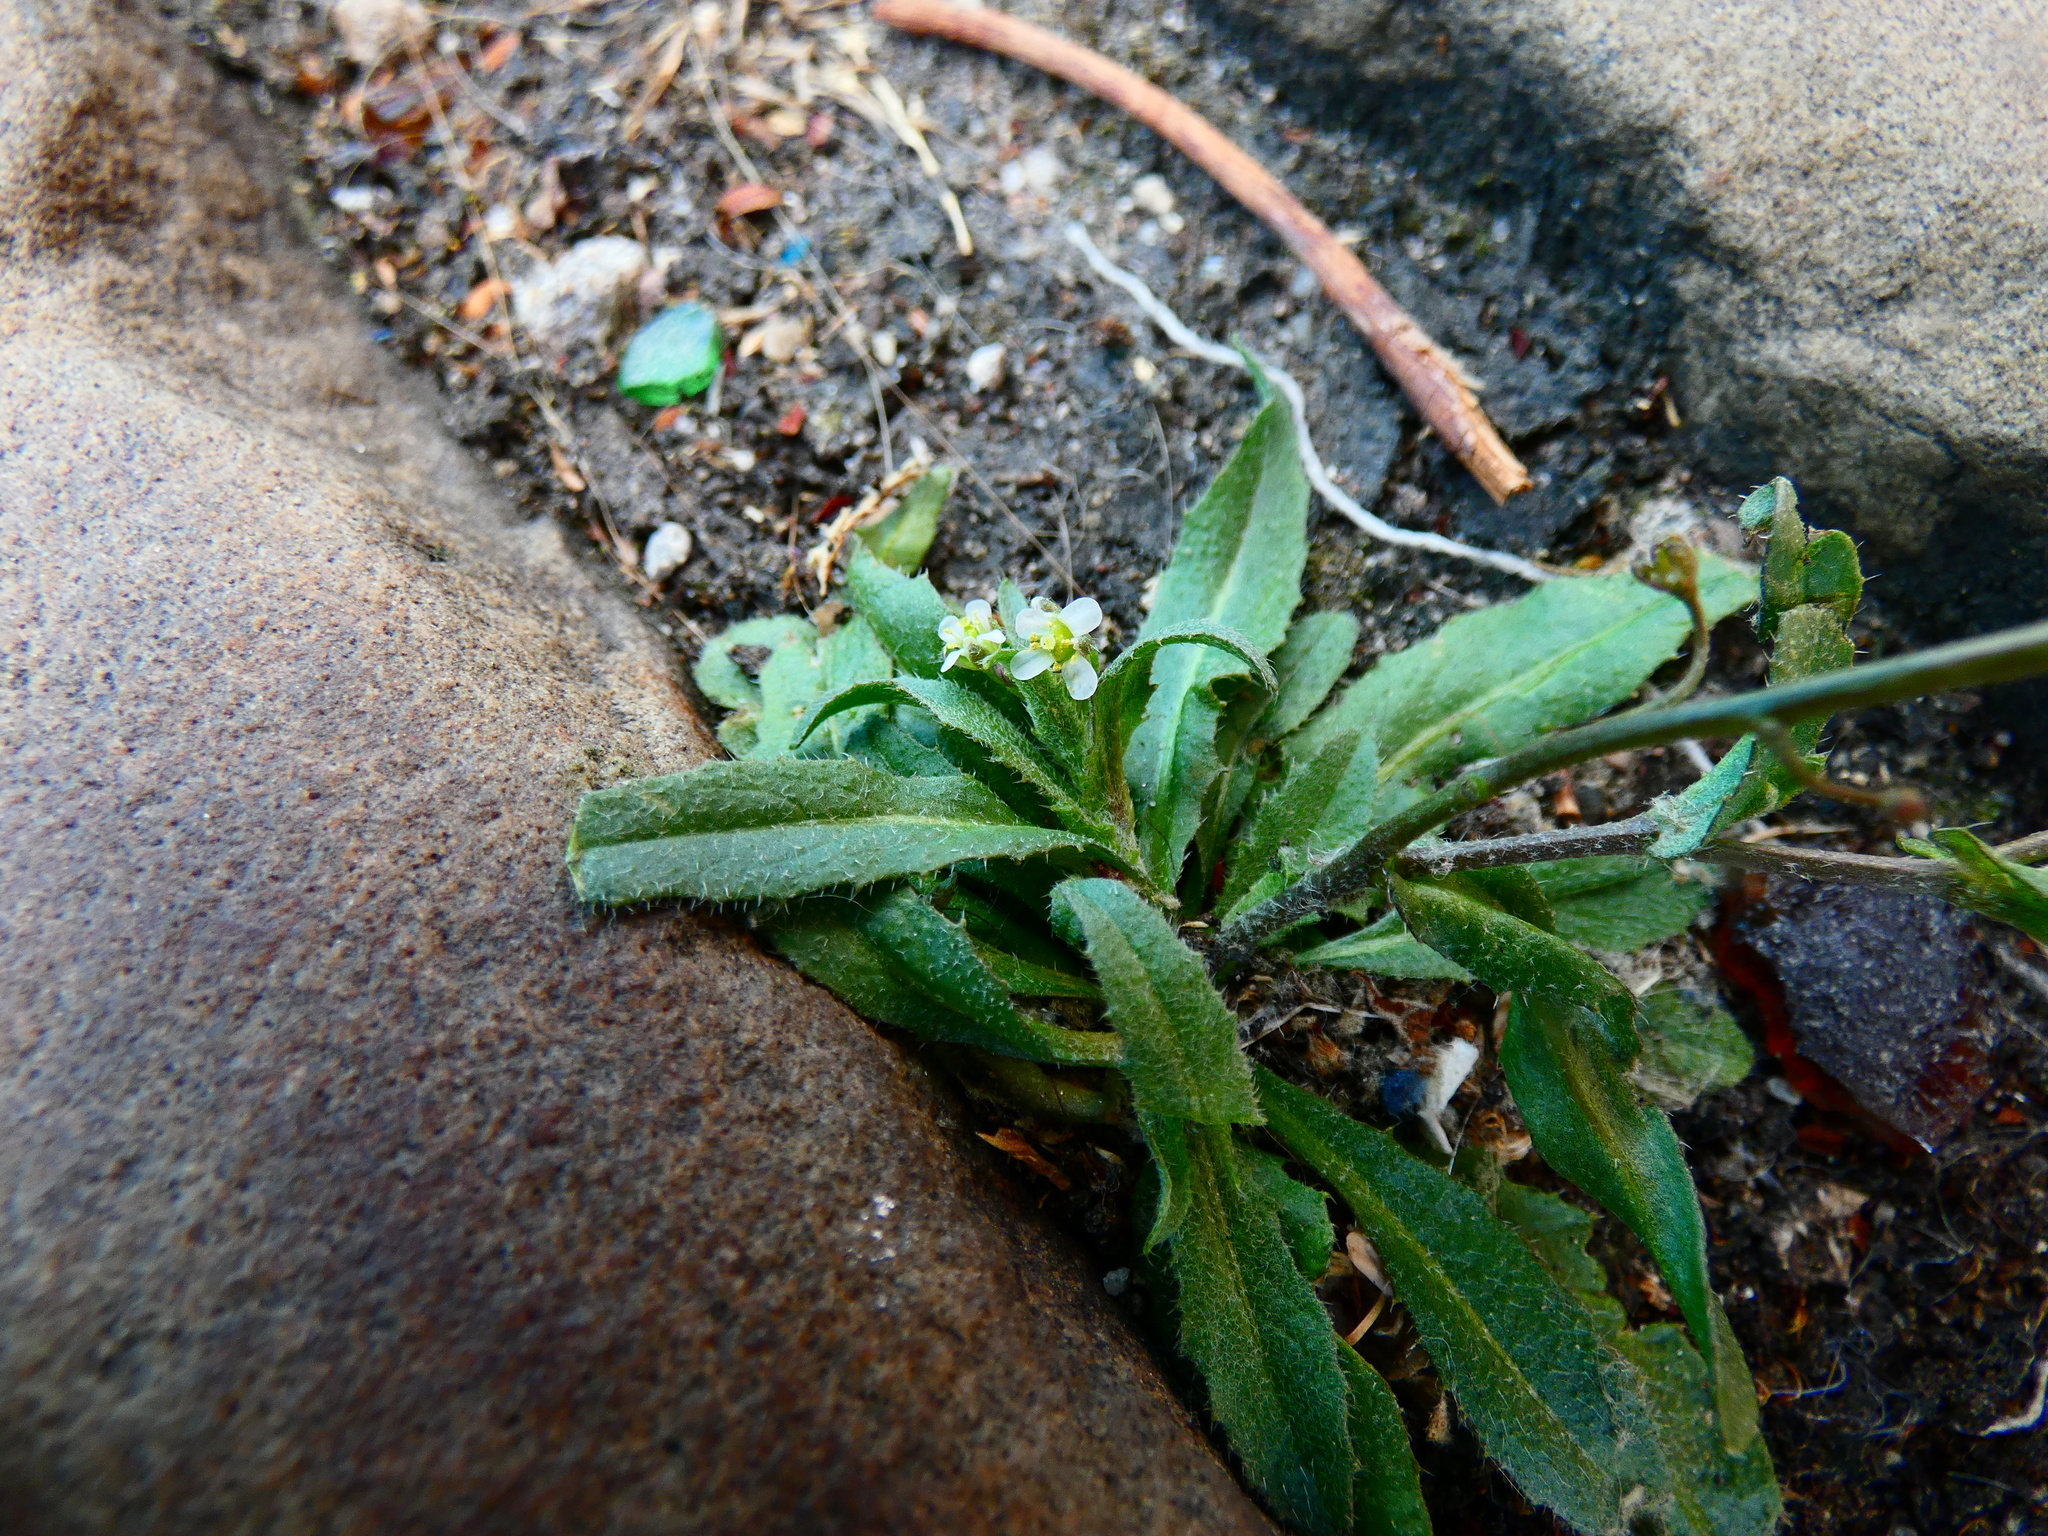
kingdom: Plantae
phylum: Tracheophyta
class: Magnoliopsida
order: Brassicales
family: Brassicaceae
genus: Capsella
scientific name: Capsella bursa-pastoris
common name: Shepherd's purse
